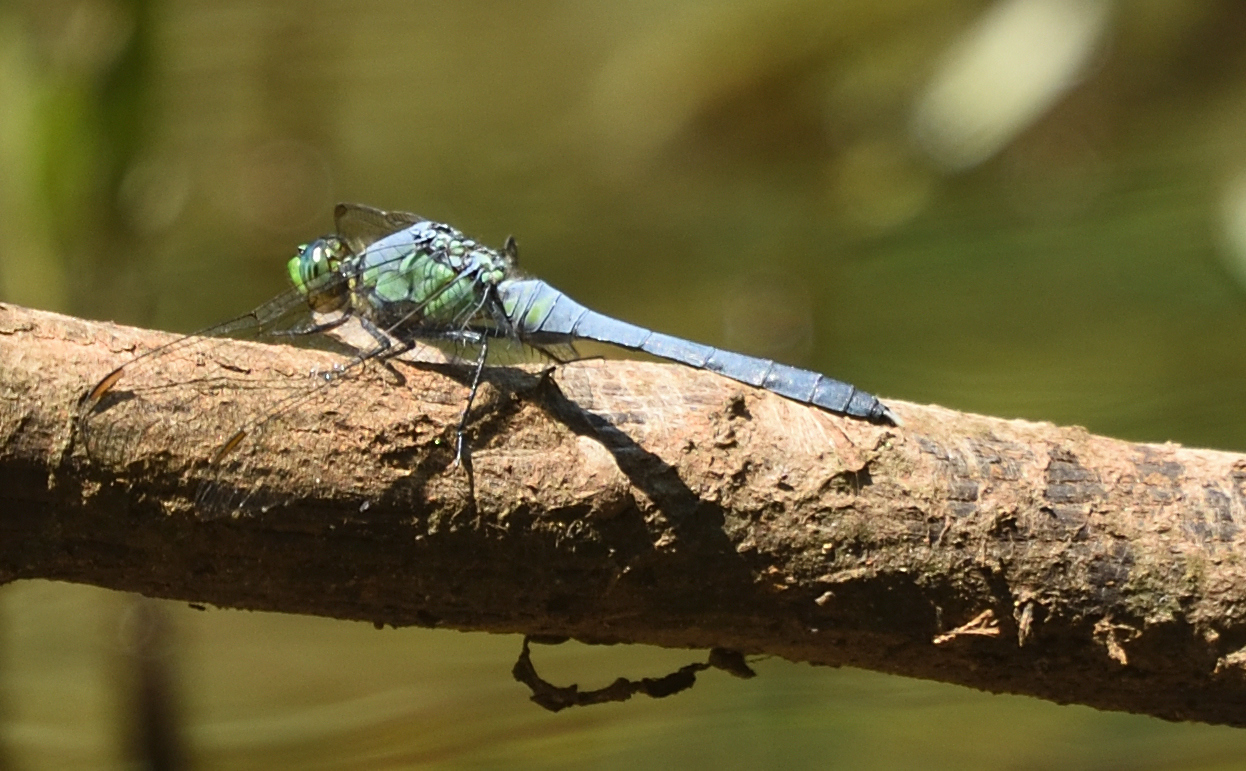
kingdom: Animalia
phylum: Arthropoda
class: Insecta
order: Odonata
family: Libellulidae
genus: Erythemis
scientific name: Erythemis simplicicollis
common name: Eastern pondhawk
